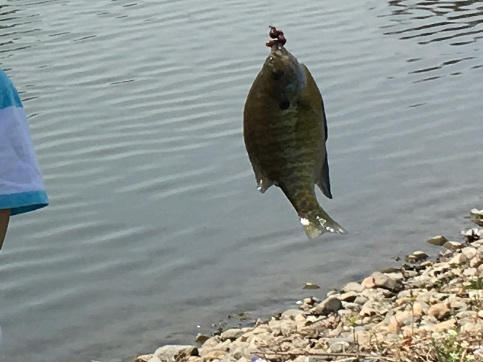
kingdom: Animalia
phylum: Chordata
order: Perciformes
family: Centrarchidae
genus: Lepomis
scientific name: Lepomis macrochirus
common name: Bluegill
